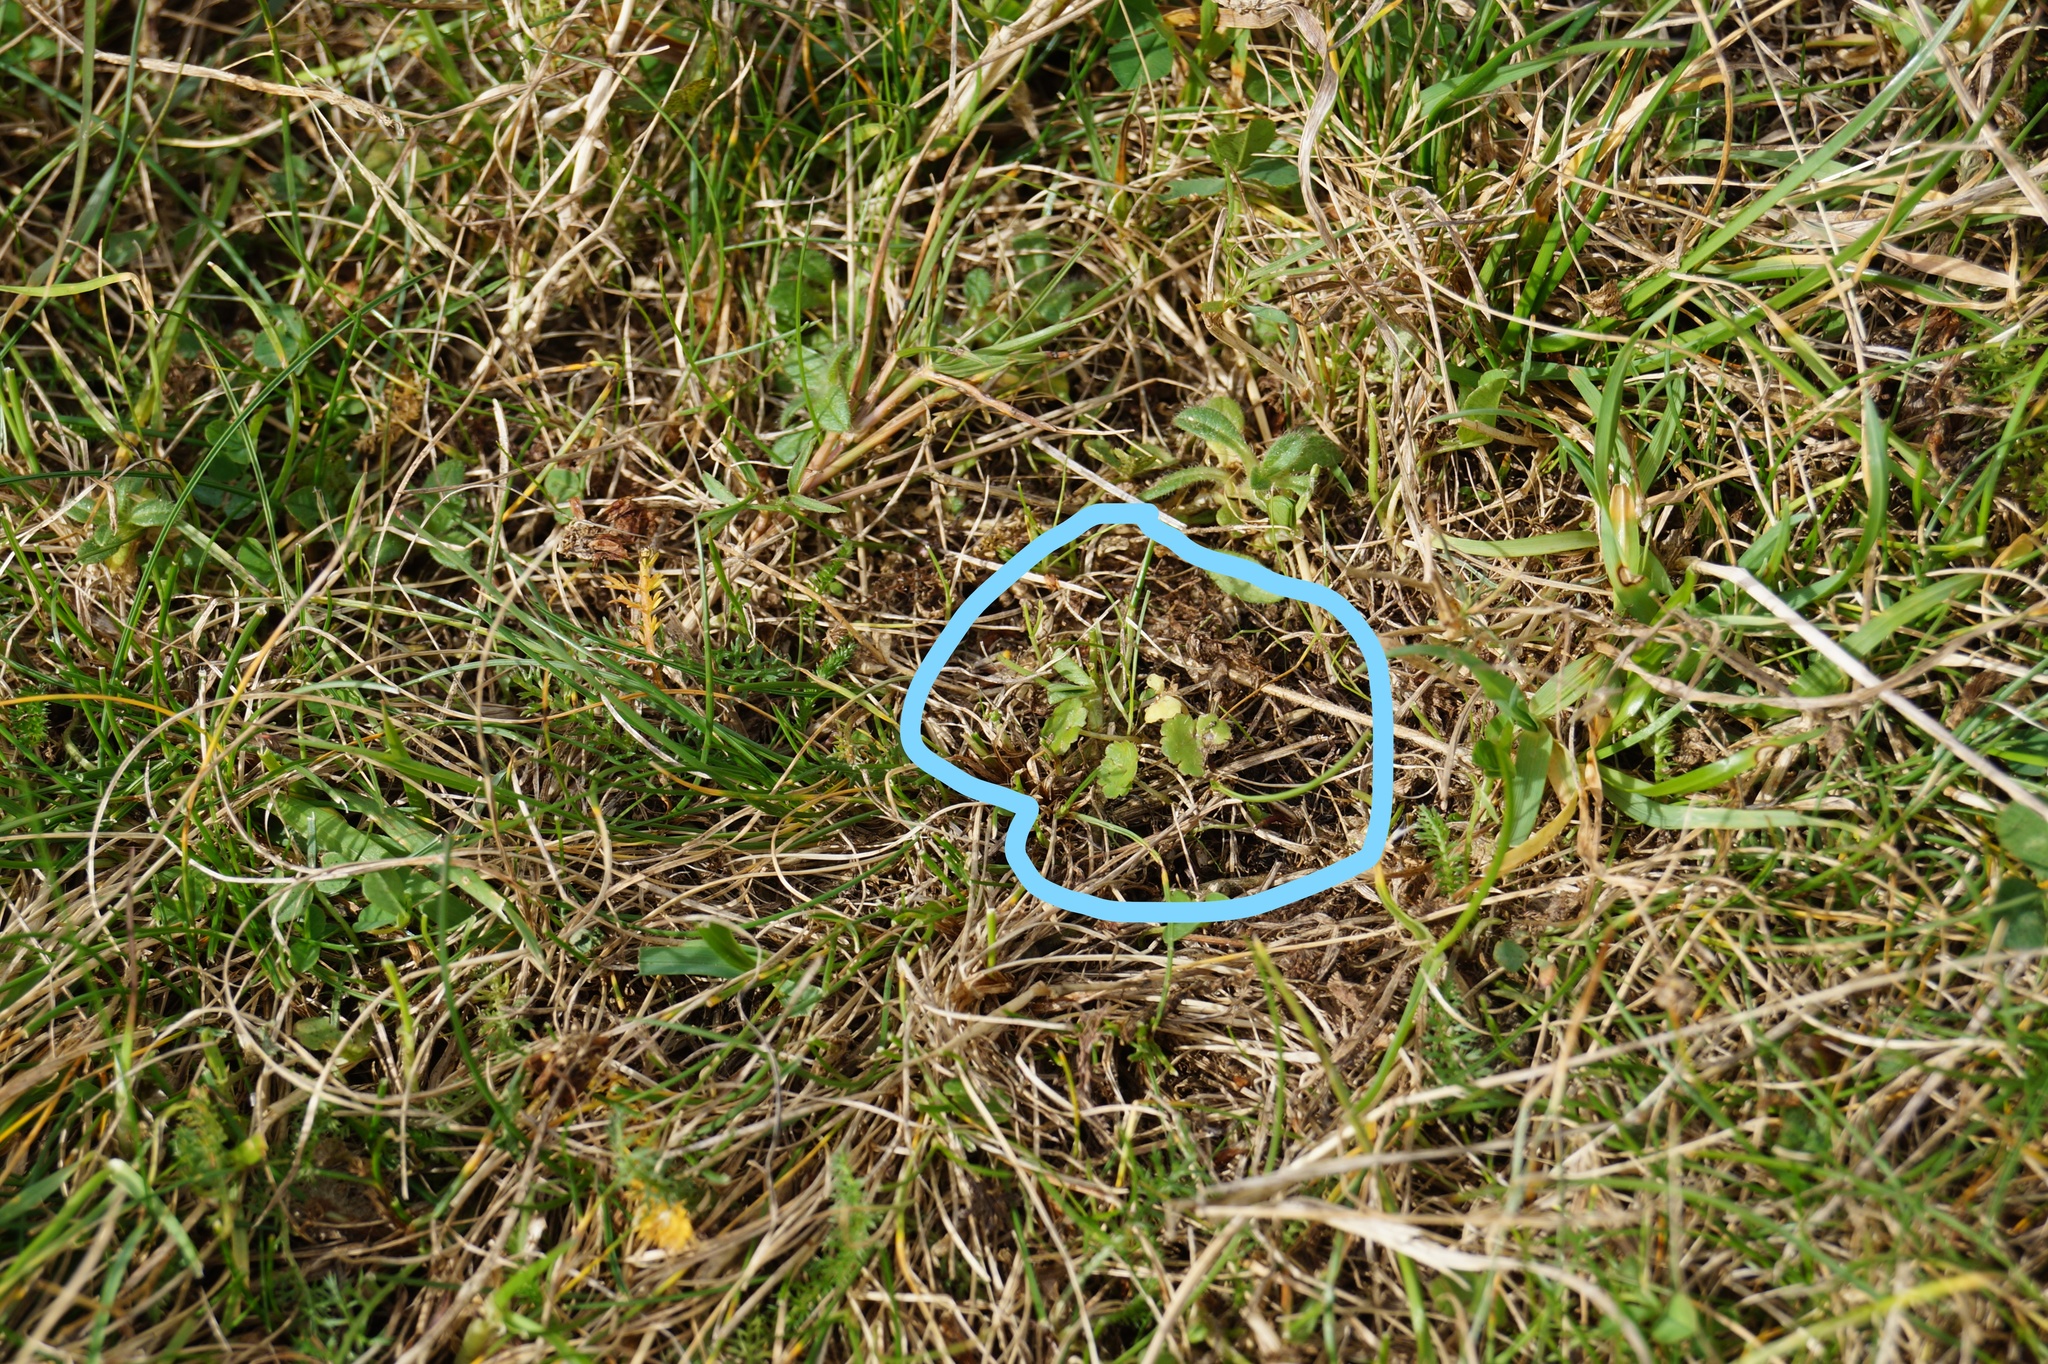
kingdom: Plantae
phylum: Tracheophyta
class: Magnoliopsida
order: Apiales
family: Araliaceae
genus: Hydrocotyle
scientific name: Hydrocotyle novae-zeelandiae
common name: New zealand pennywort
